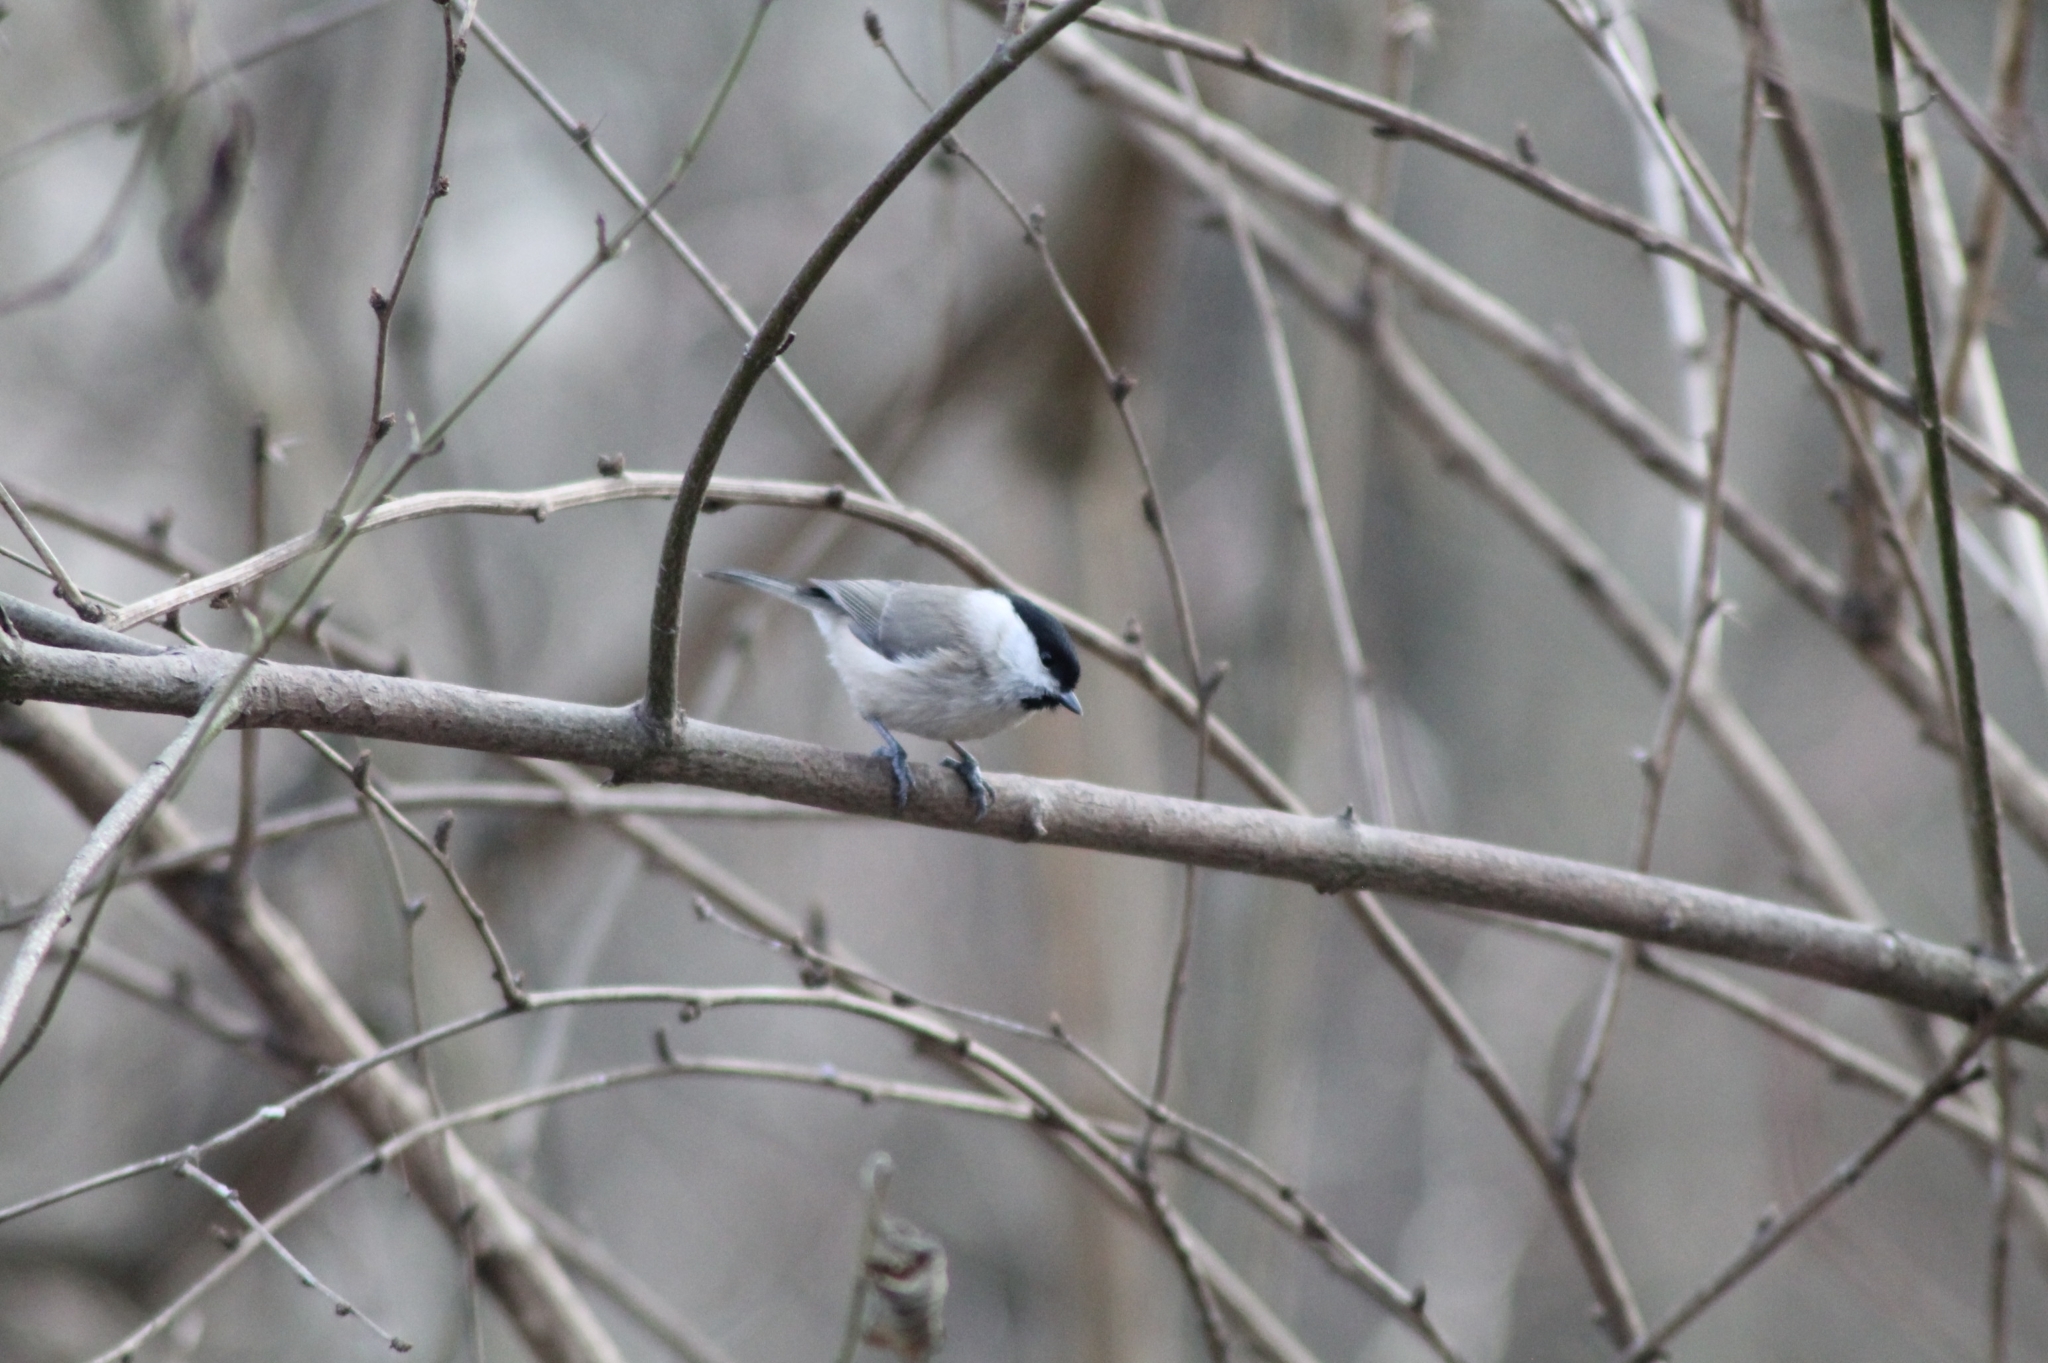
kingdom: Animalia
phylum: Chordata
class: Aves
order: Passeriformes
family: Paridae
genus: Poecile
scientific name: Poecile palustris
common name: Marsh tit
